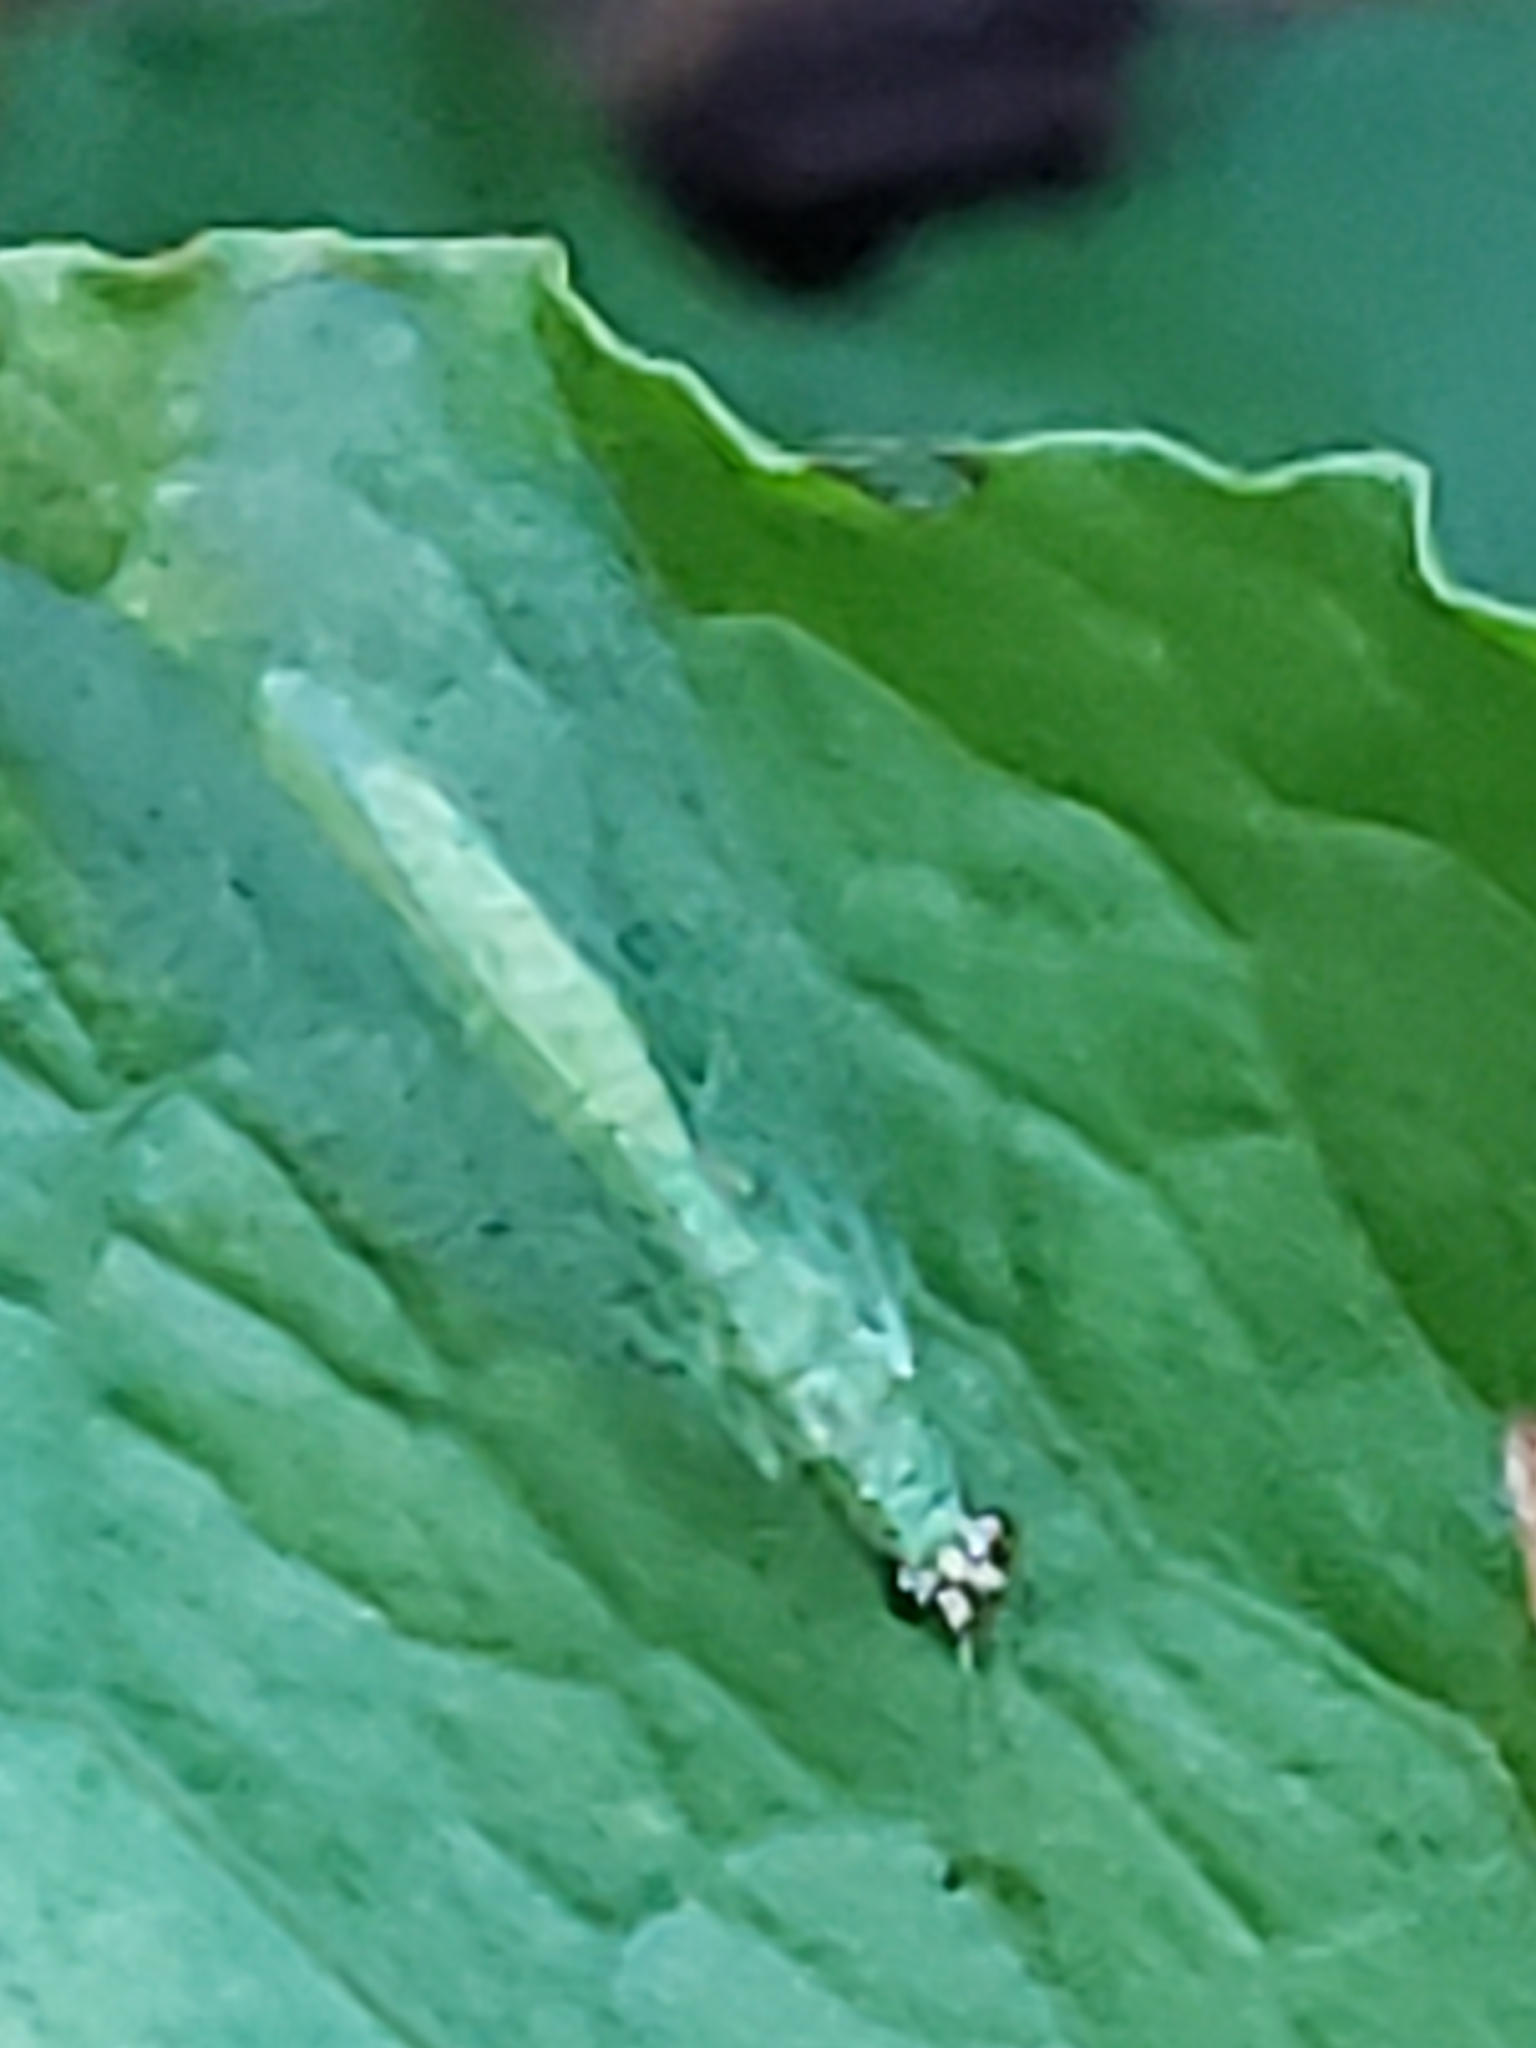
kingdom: Animalia
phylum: Arthropoda
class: Insecta
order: Neuroptera
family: Chrysopidae
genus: Chrysopa
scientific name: Chrysopa oculata
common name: Golden-eyed lacewing
